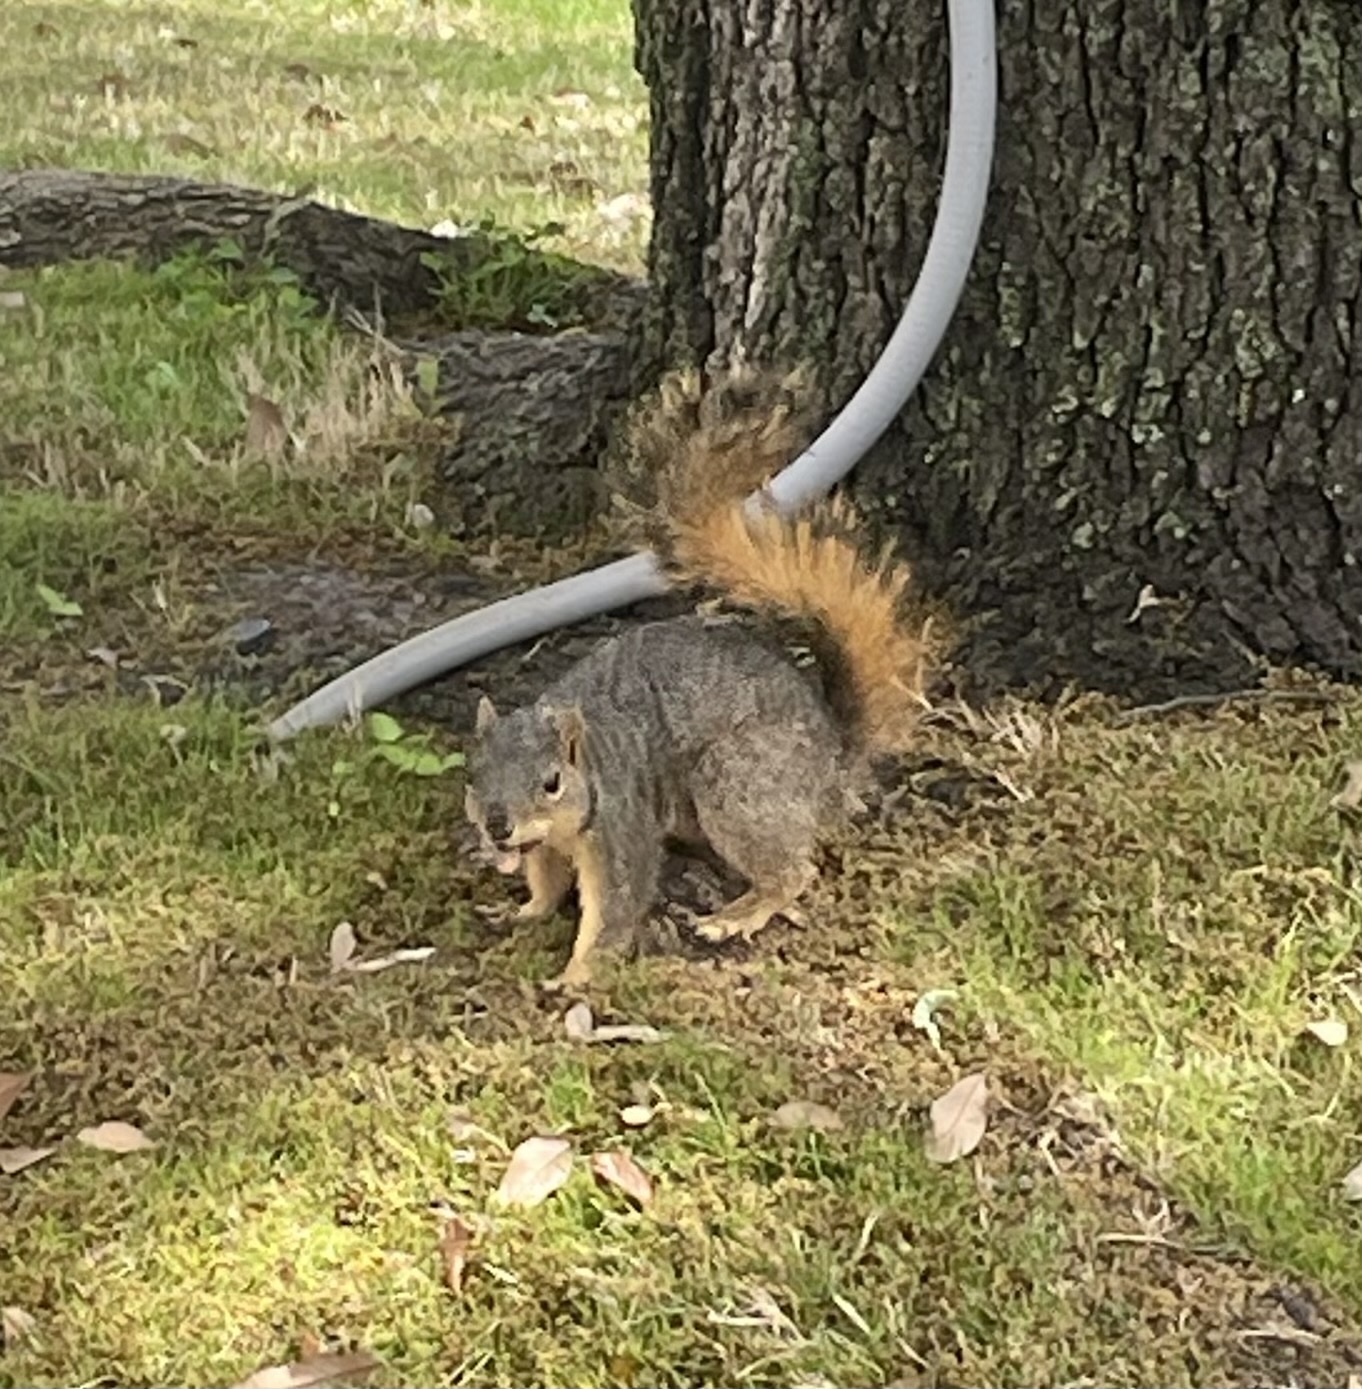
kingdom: Animalia
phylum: Chordata
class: Mammalia
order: Rodentia
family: Sciuridae
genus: Sciurus
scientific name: Sciurus niger
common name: Fox squirrel
